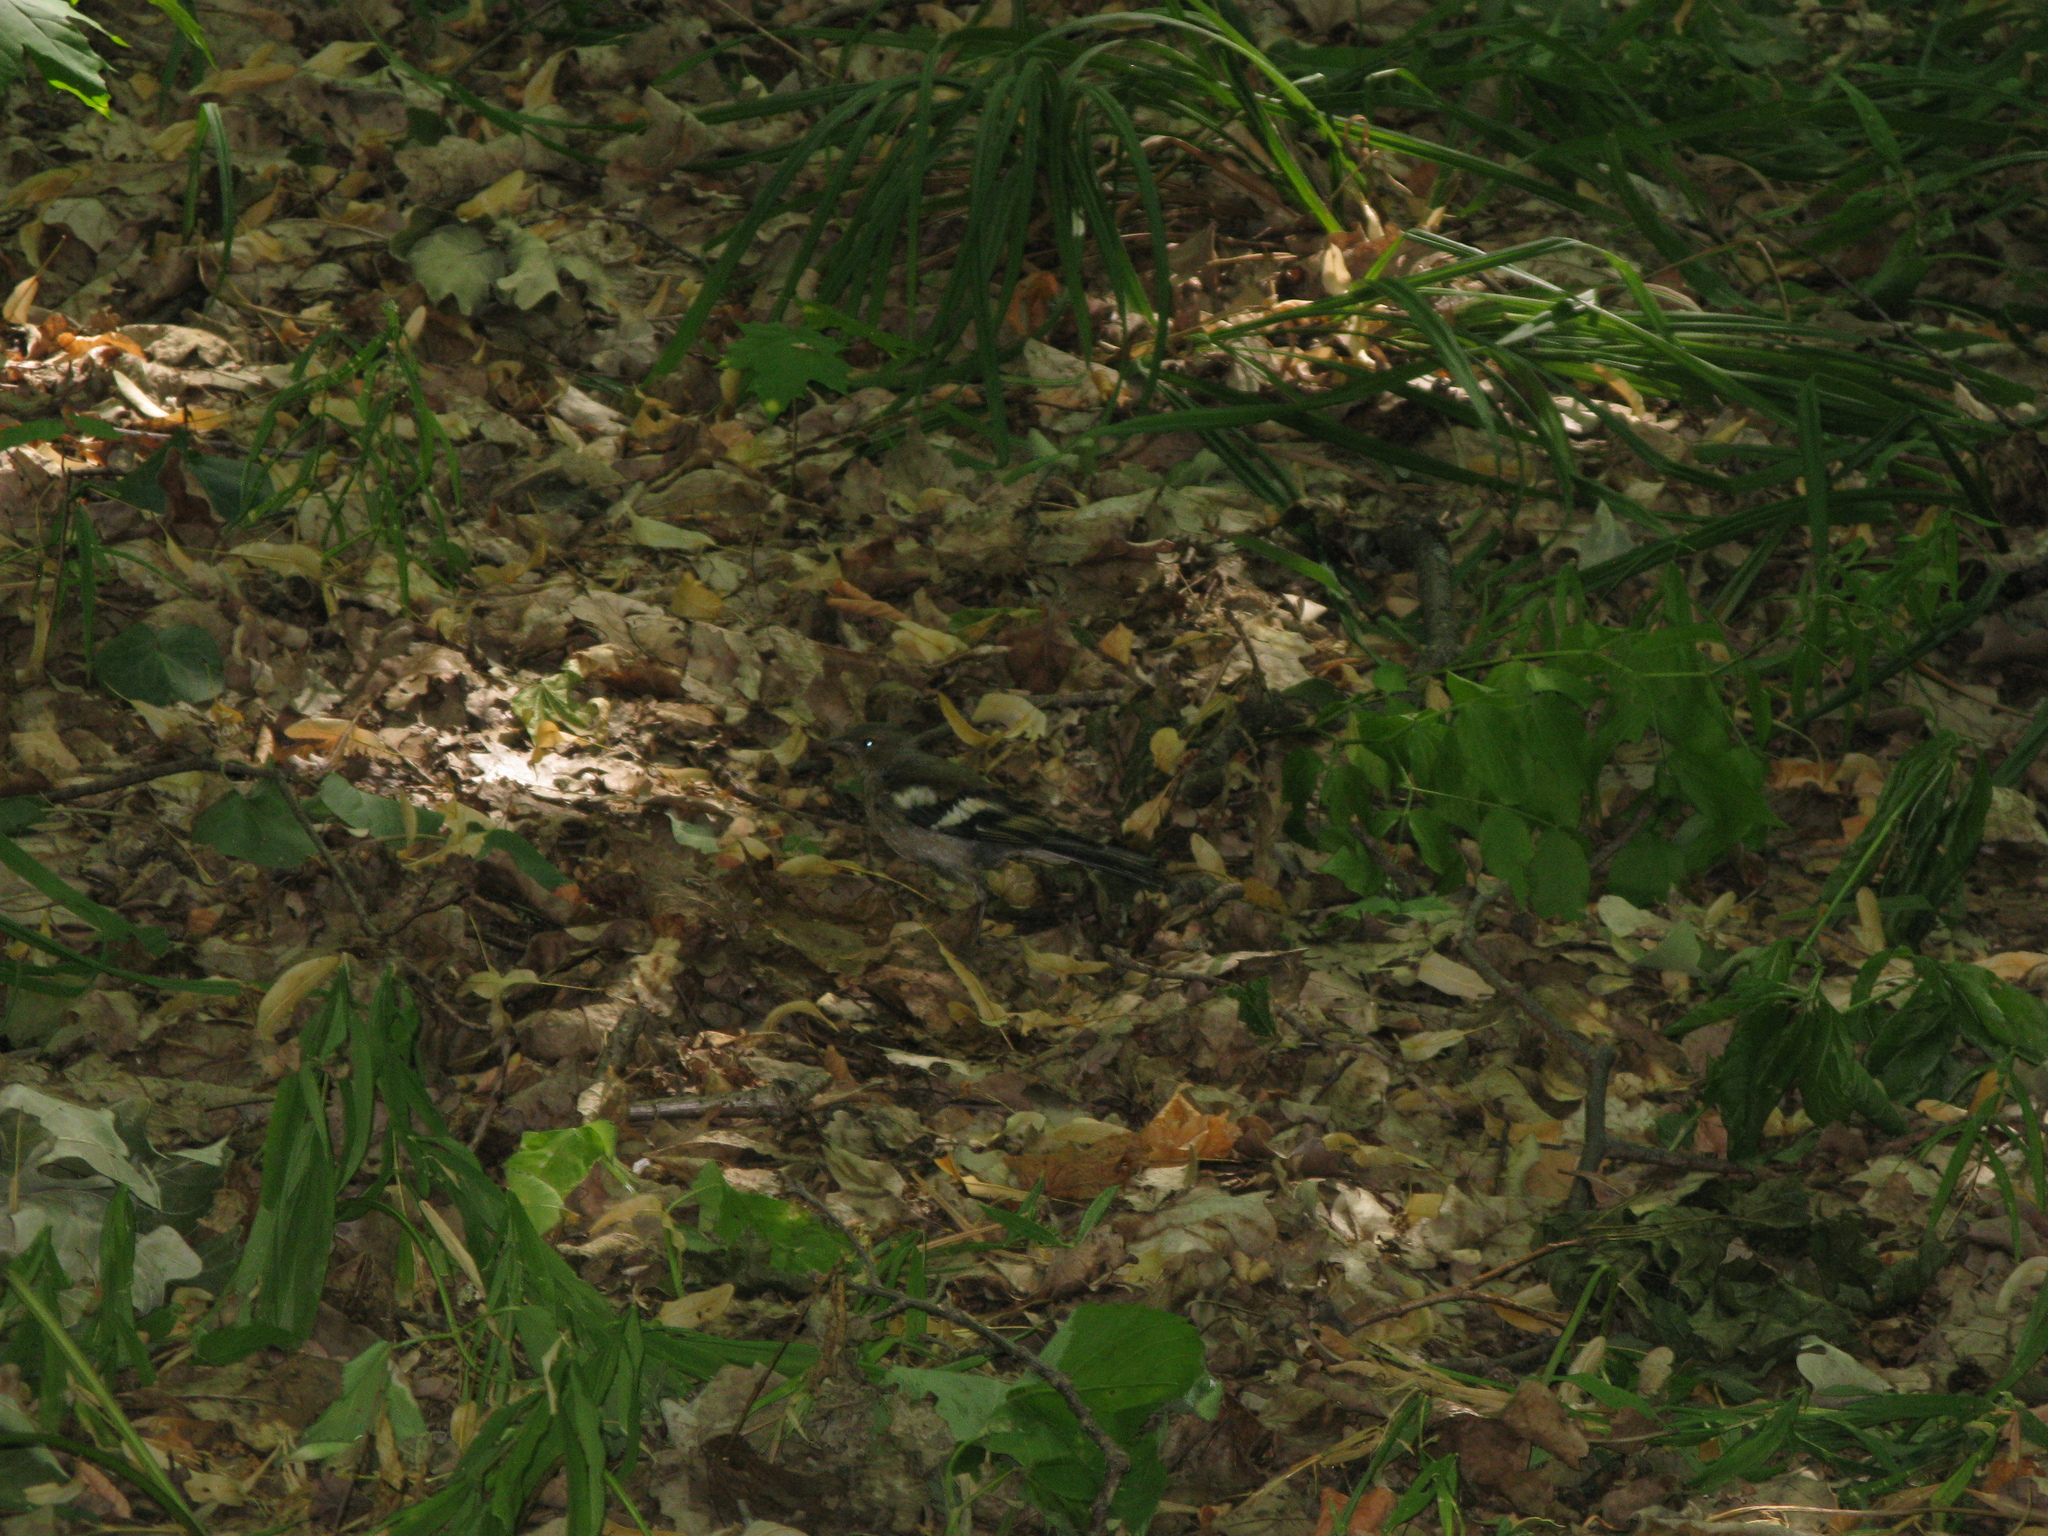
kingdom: Animalia
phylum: Chordata
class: Aves
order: Passeriformes
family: Fringillidae
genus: Fringilla
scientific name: Fringilla coelebs
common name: Common chaffinch
